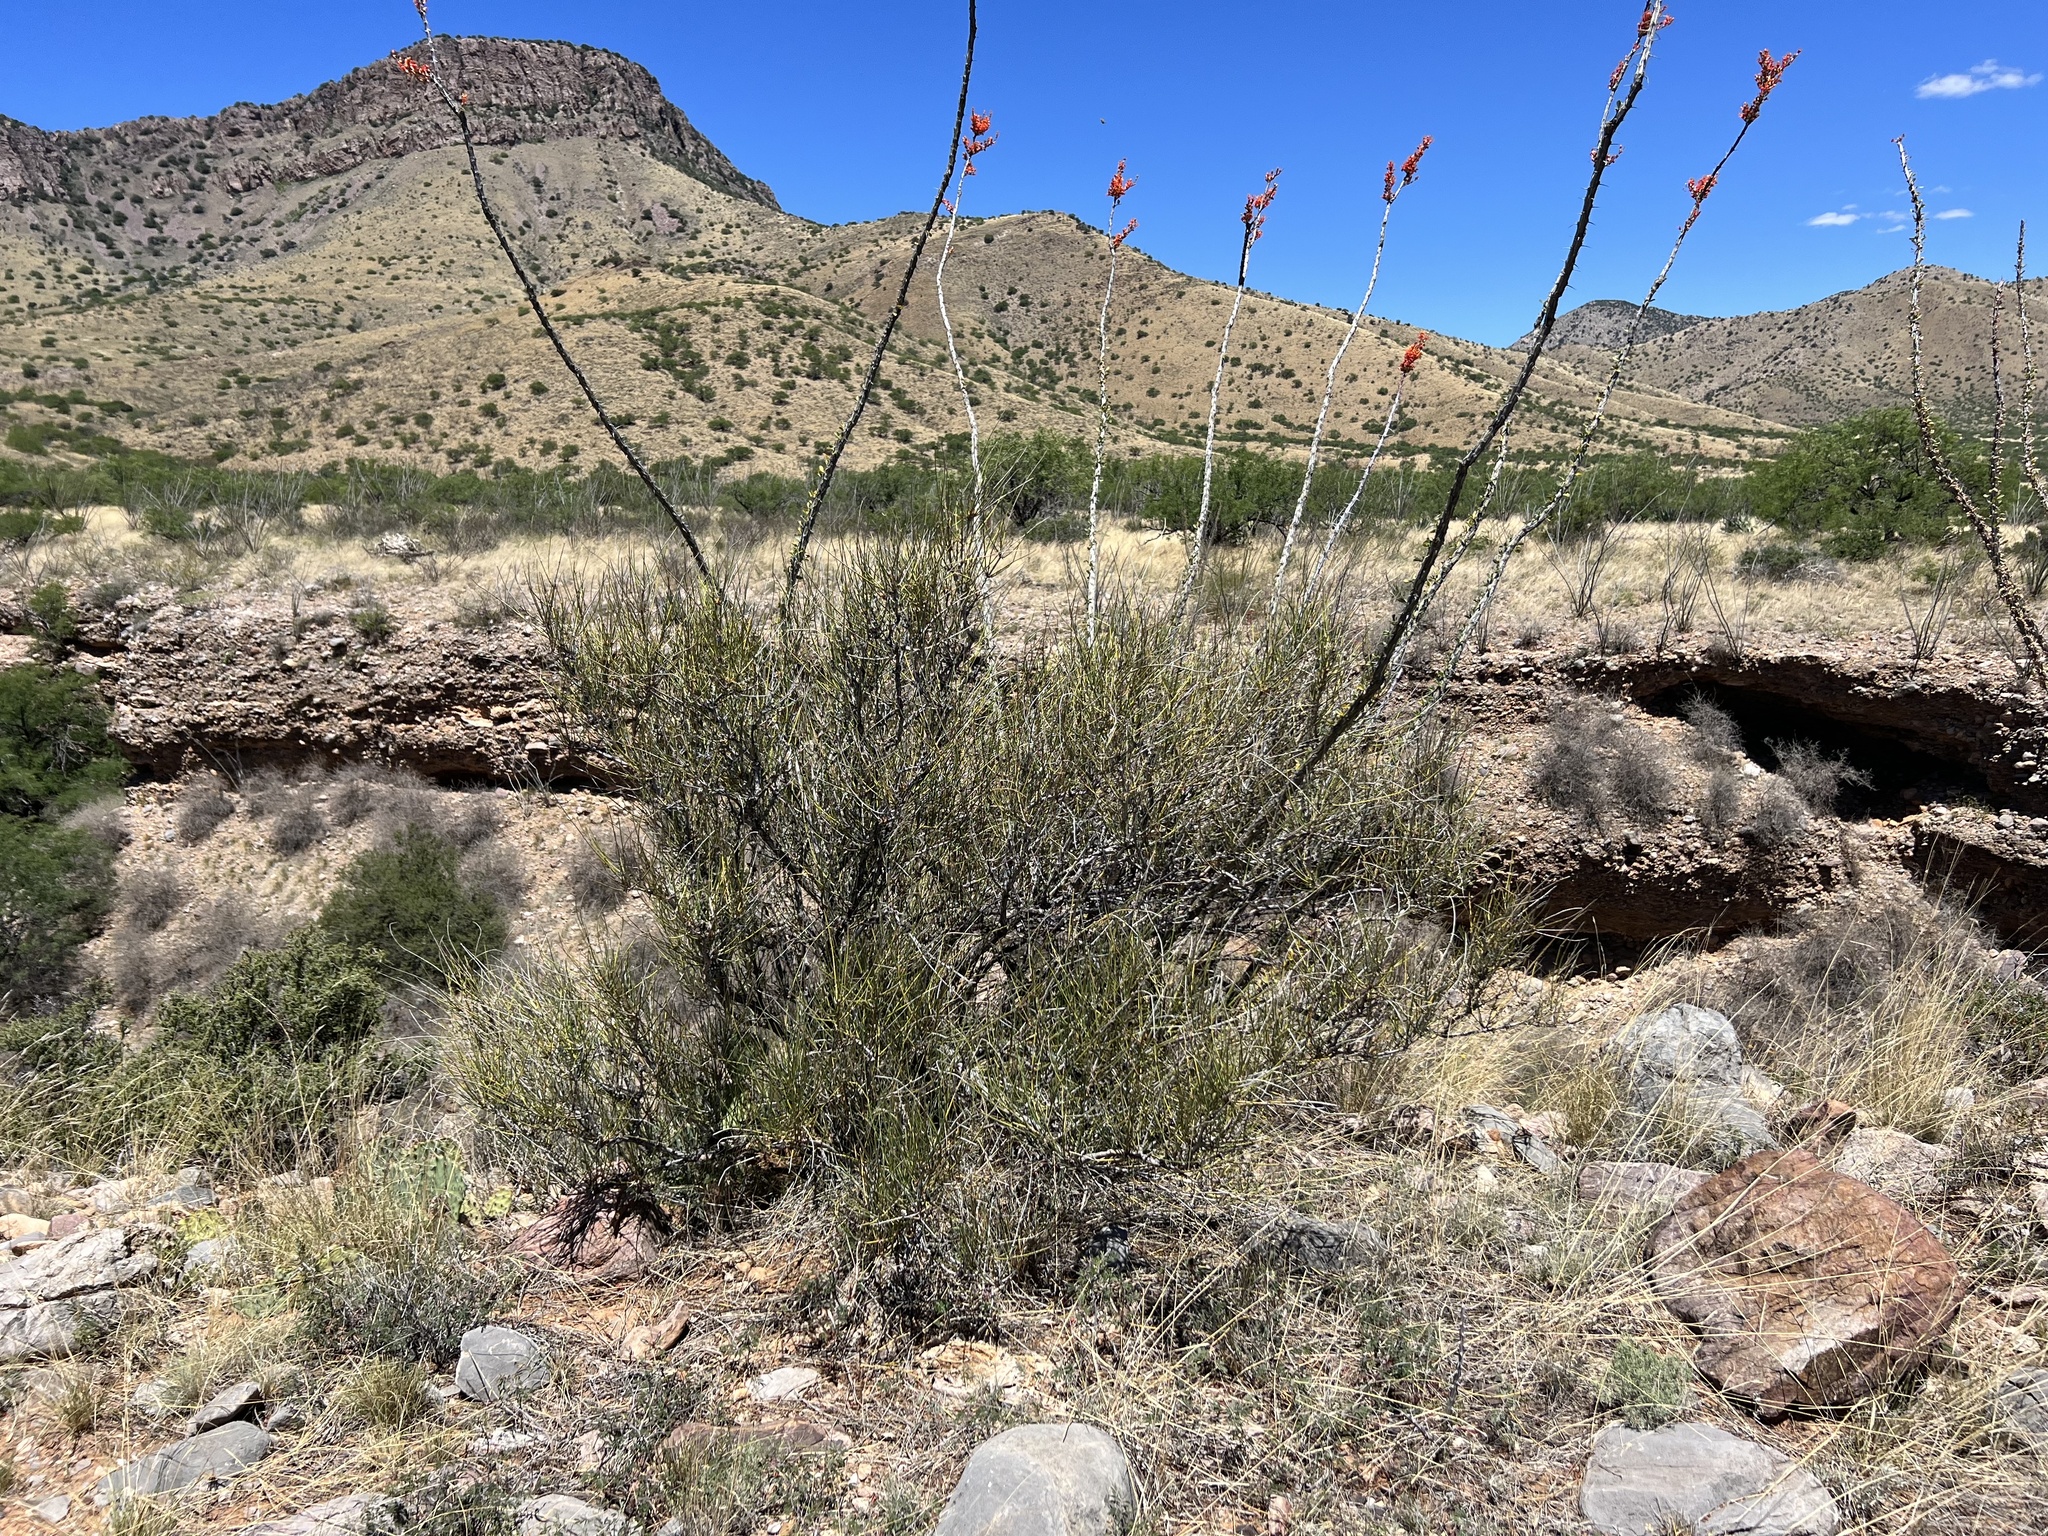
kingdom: Plantae
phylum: Tracheophyta
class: Gnetopsida
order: Ephedrales
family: Ephedraceae
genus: Ephedra
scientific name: Ephedra trifurca
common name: Mexican-tea
